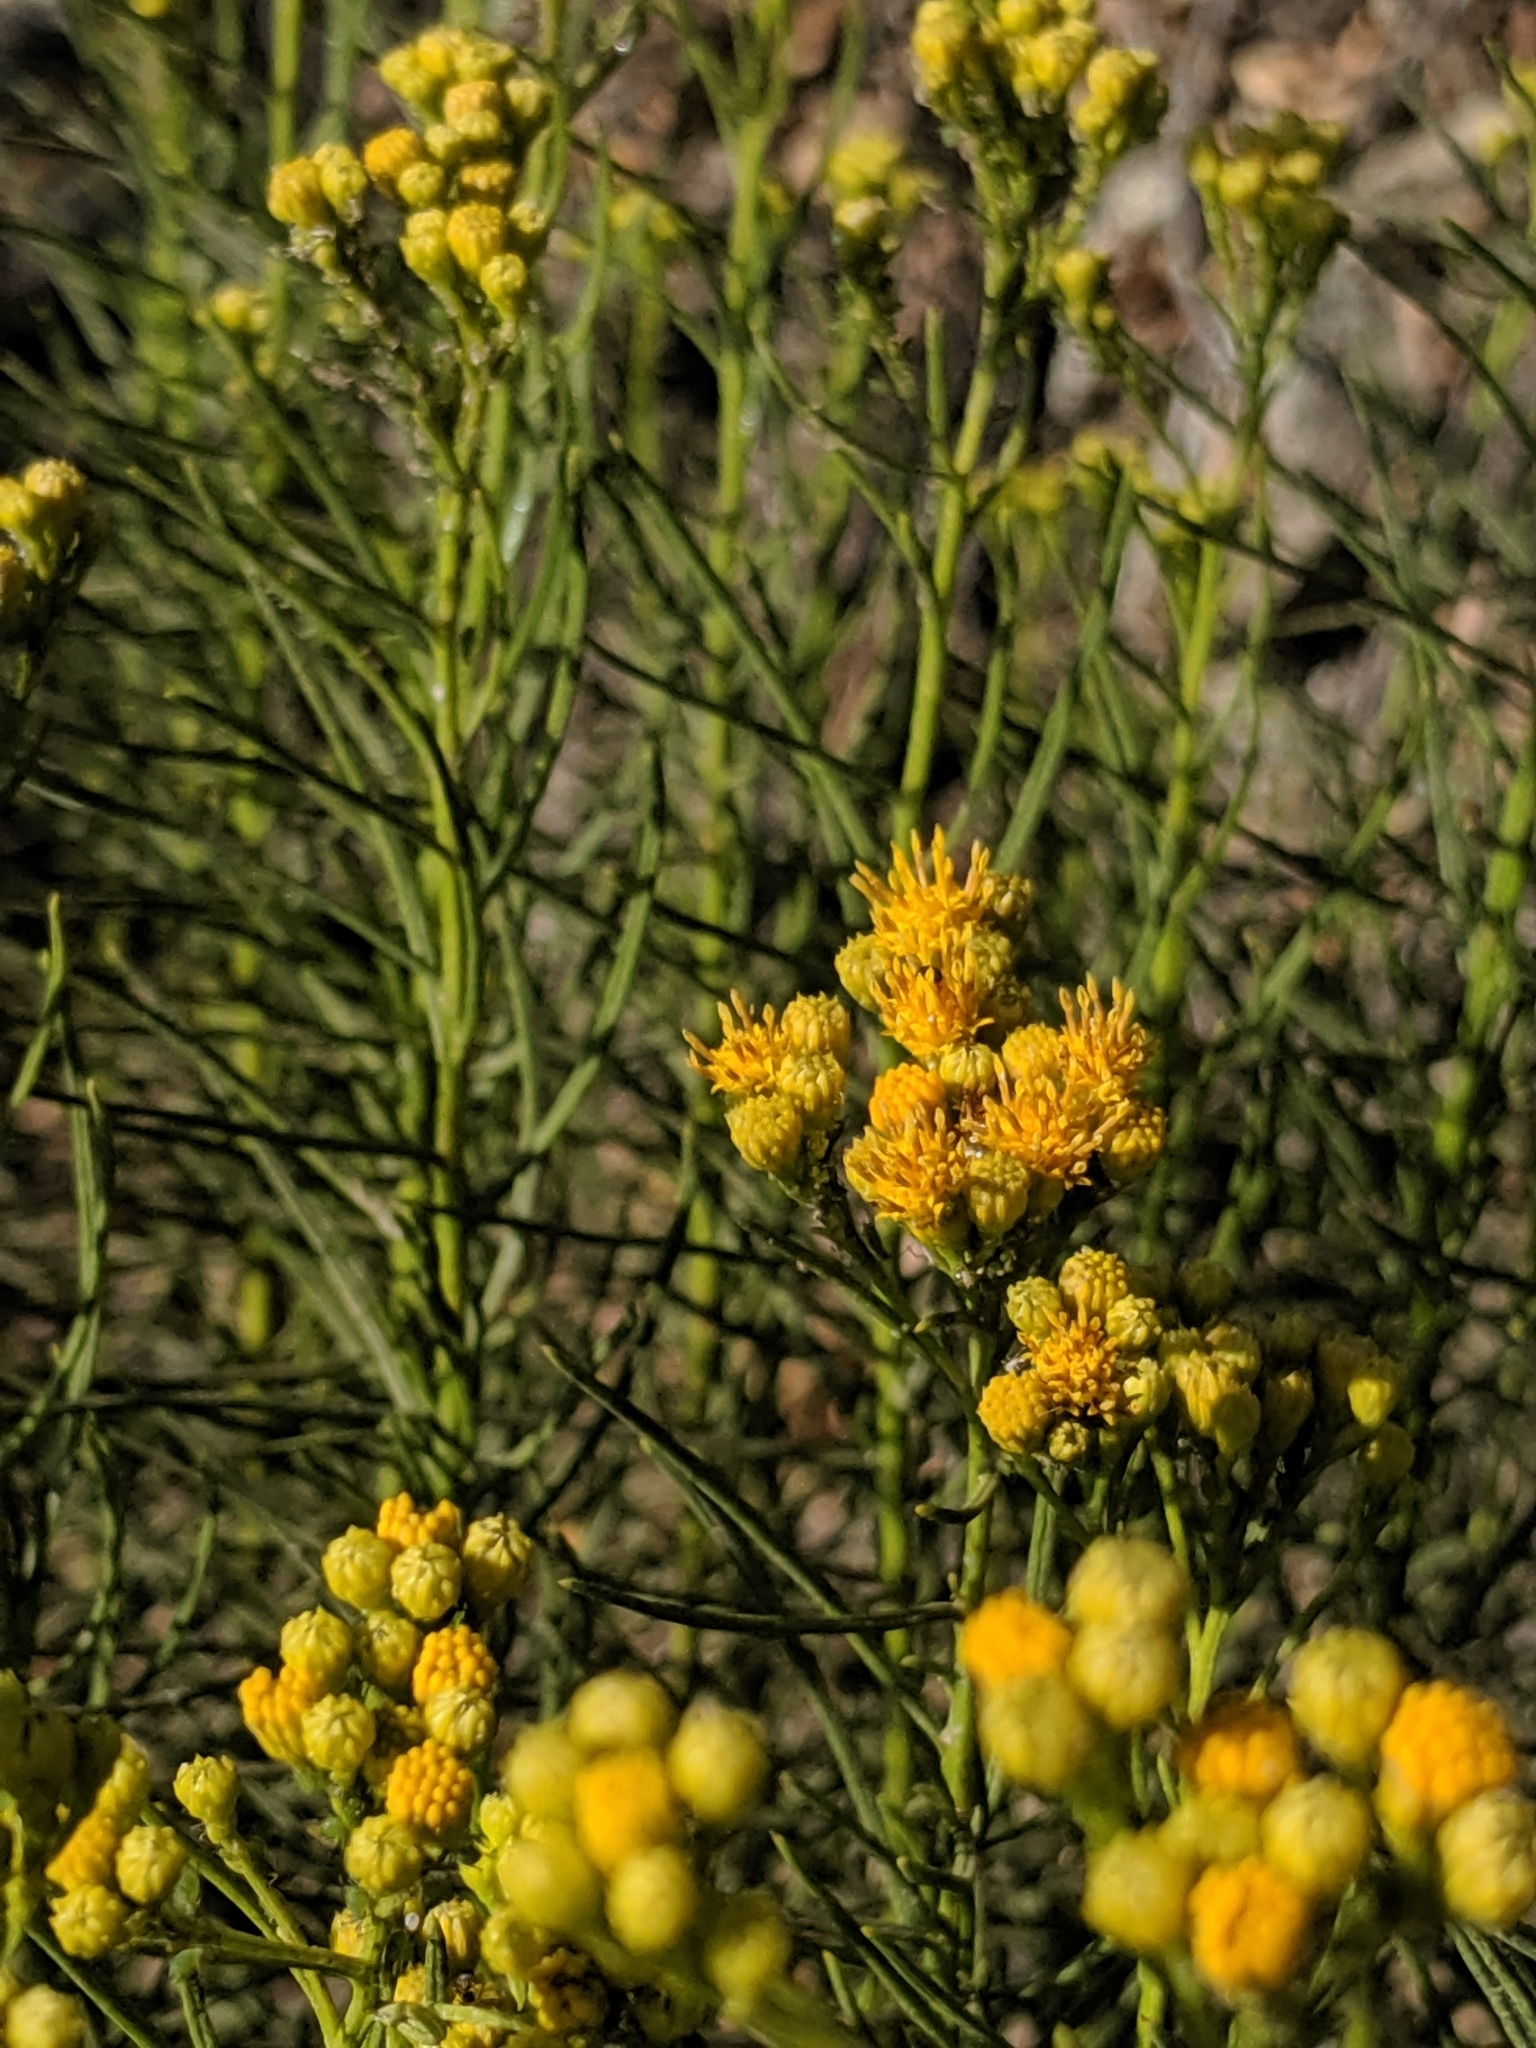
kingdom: Plantae
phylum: Tracheophyta
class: Magnoliopsida
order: Asterales
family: Asteraceae
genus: Ericameria
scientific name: Ericameria arborescens
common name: Goldenfleece
